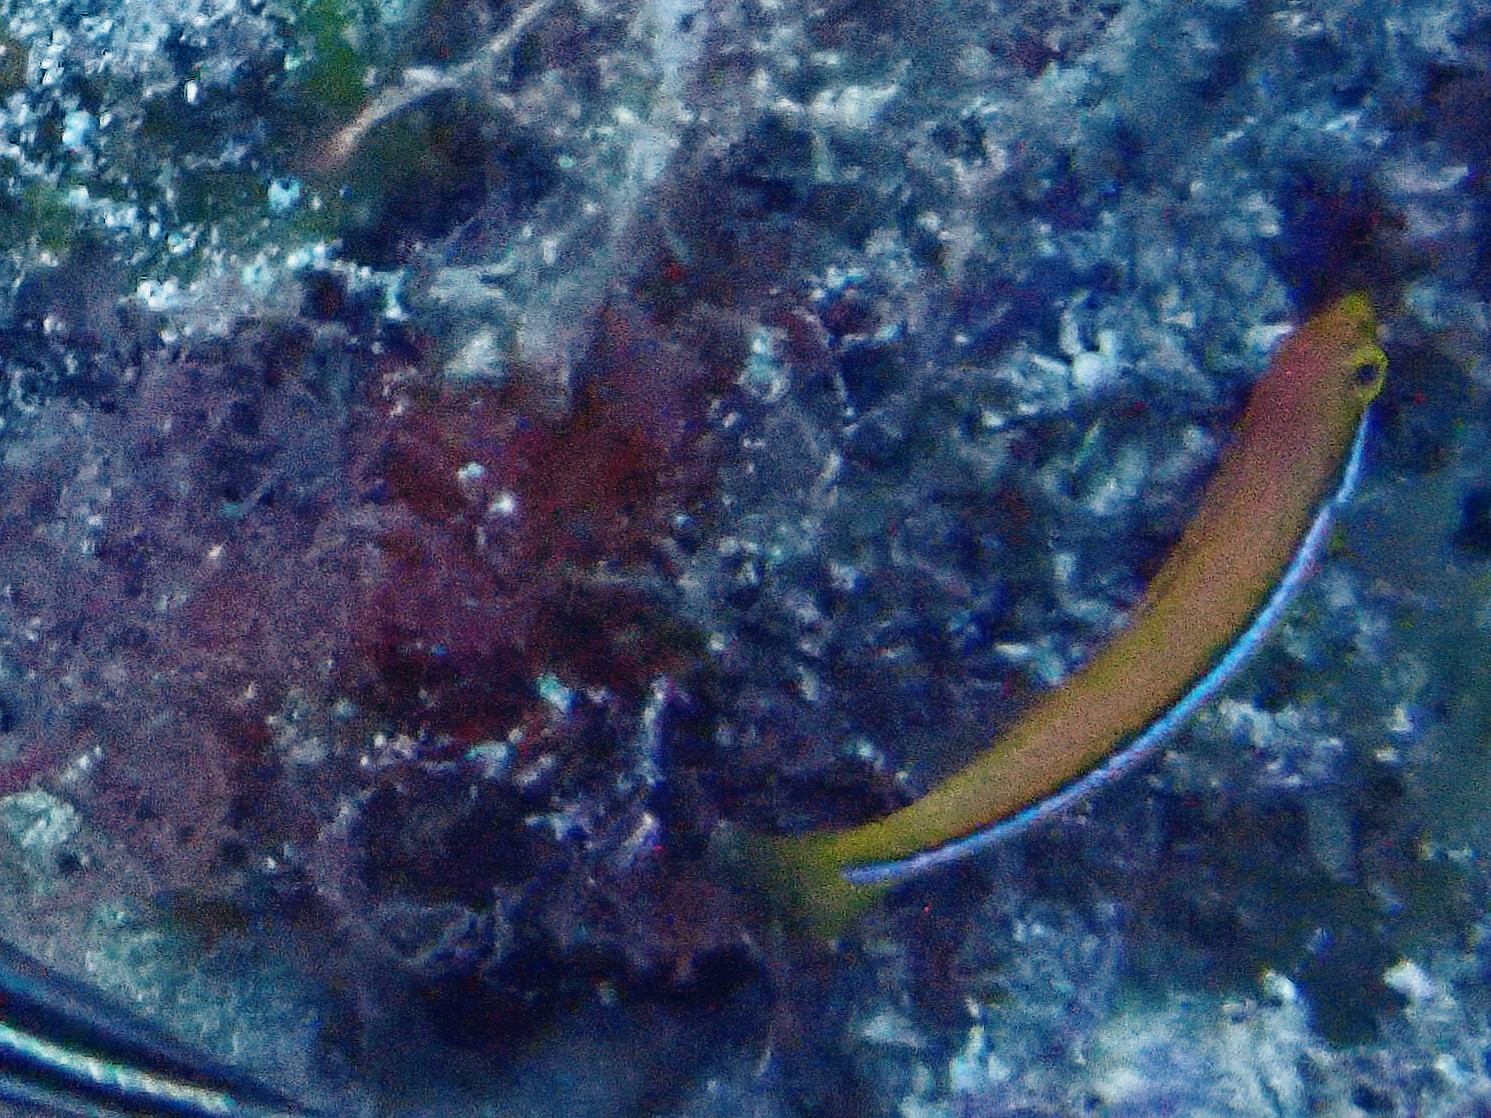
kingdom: Animalia
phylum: Chordata
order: Perciformes
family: Labridae
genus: Halichoeres
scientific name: Halichoeres garnoti
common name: Yellowhead wrasse
